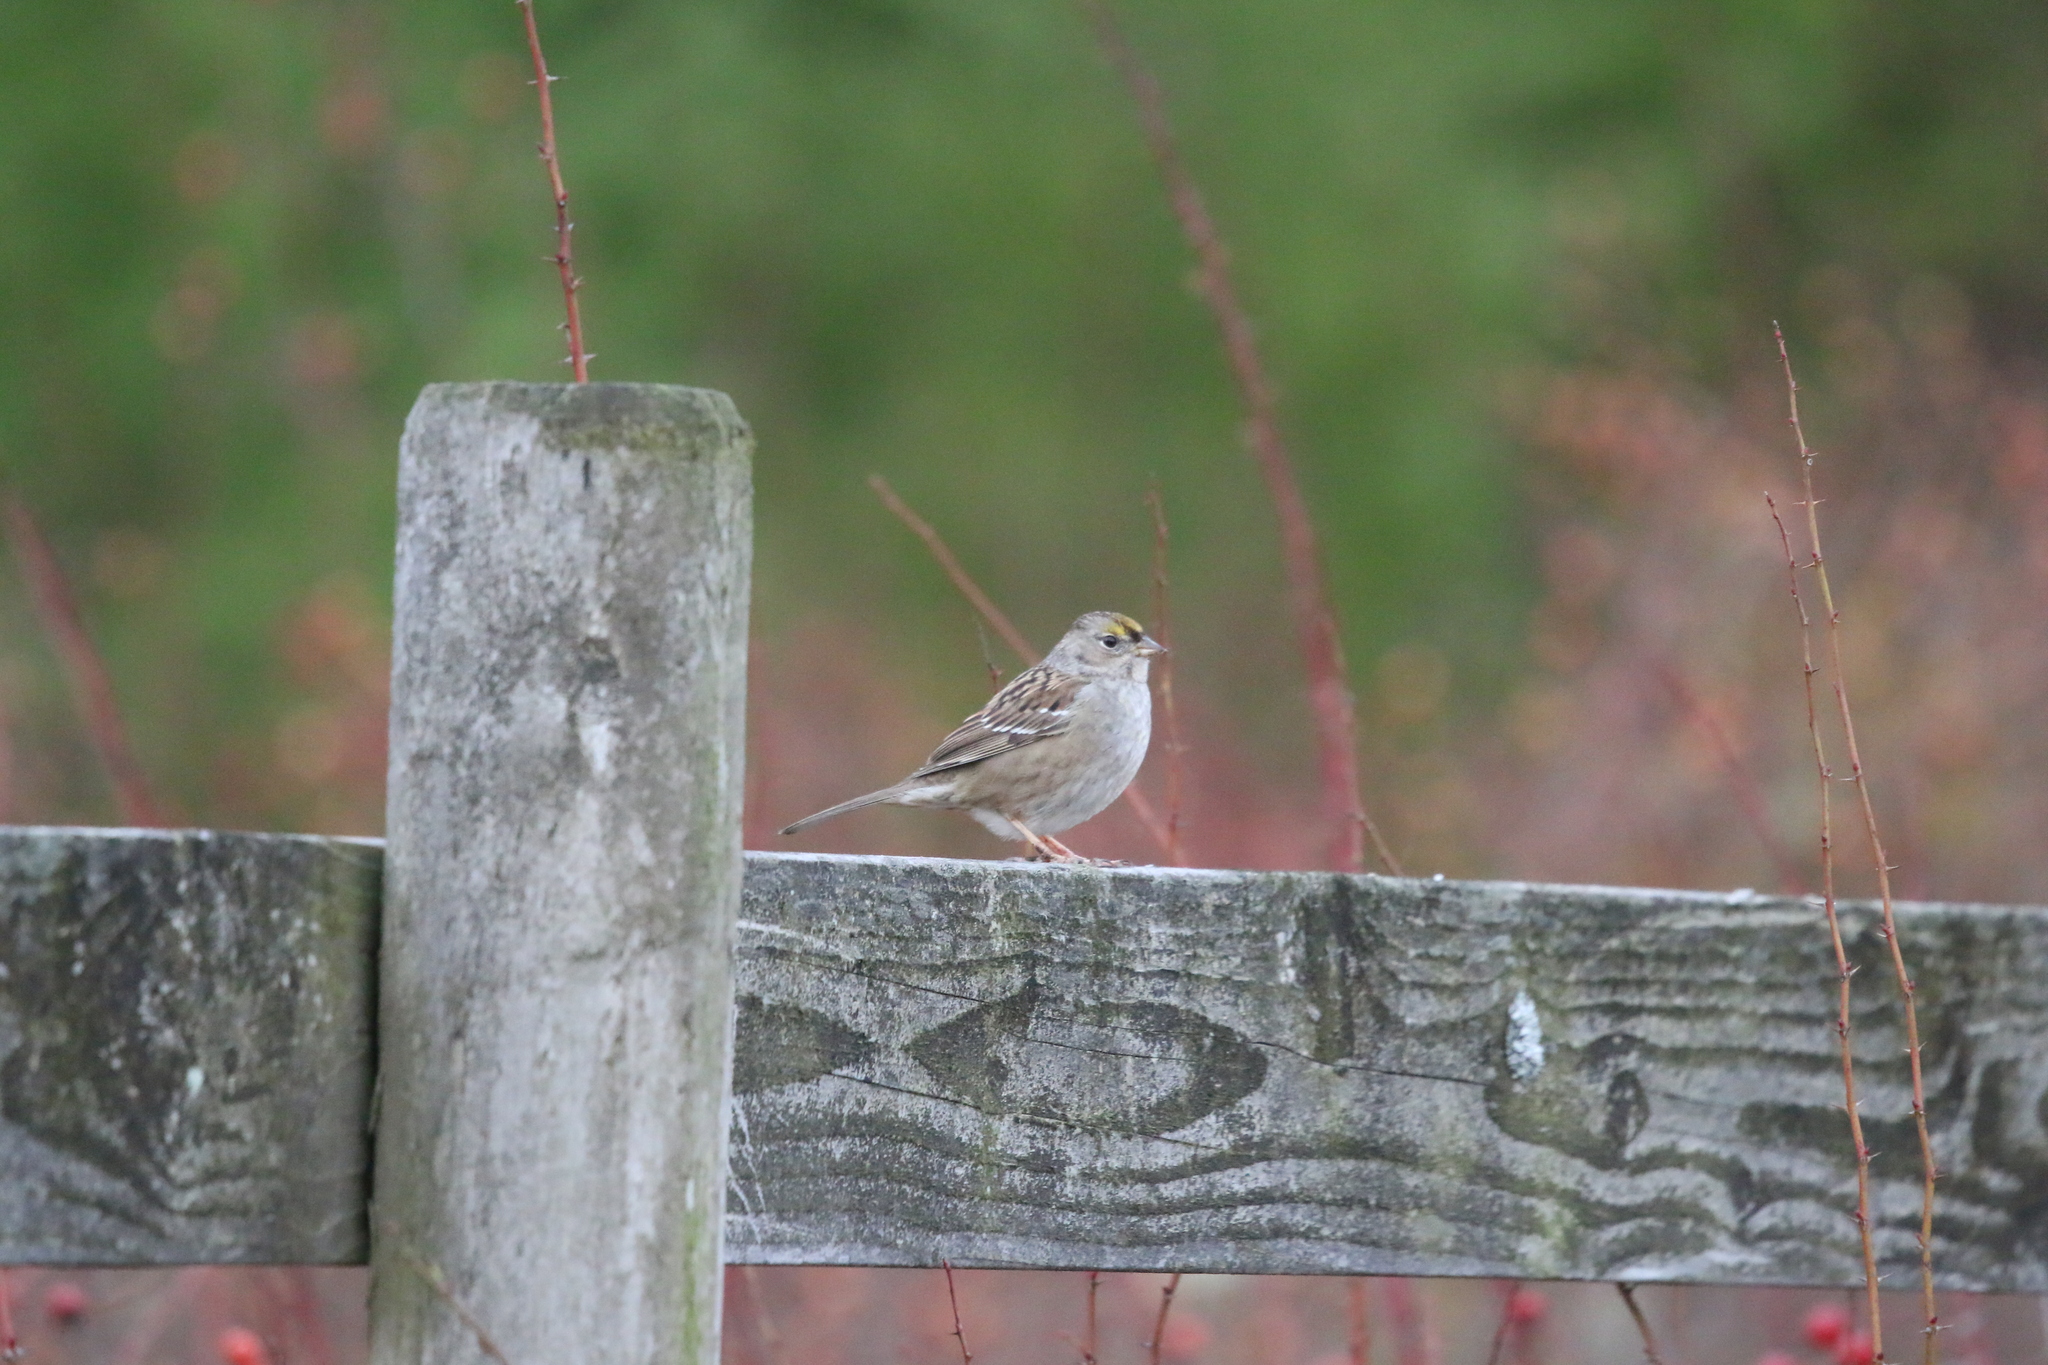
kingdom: Animalia
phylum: Chordata
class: Aves
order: Passeriformes
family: Passerellidae
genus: Zonotrichia
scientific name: Zonotrichia atricapilla
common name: Golden-crowned sparrow
